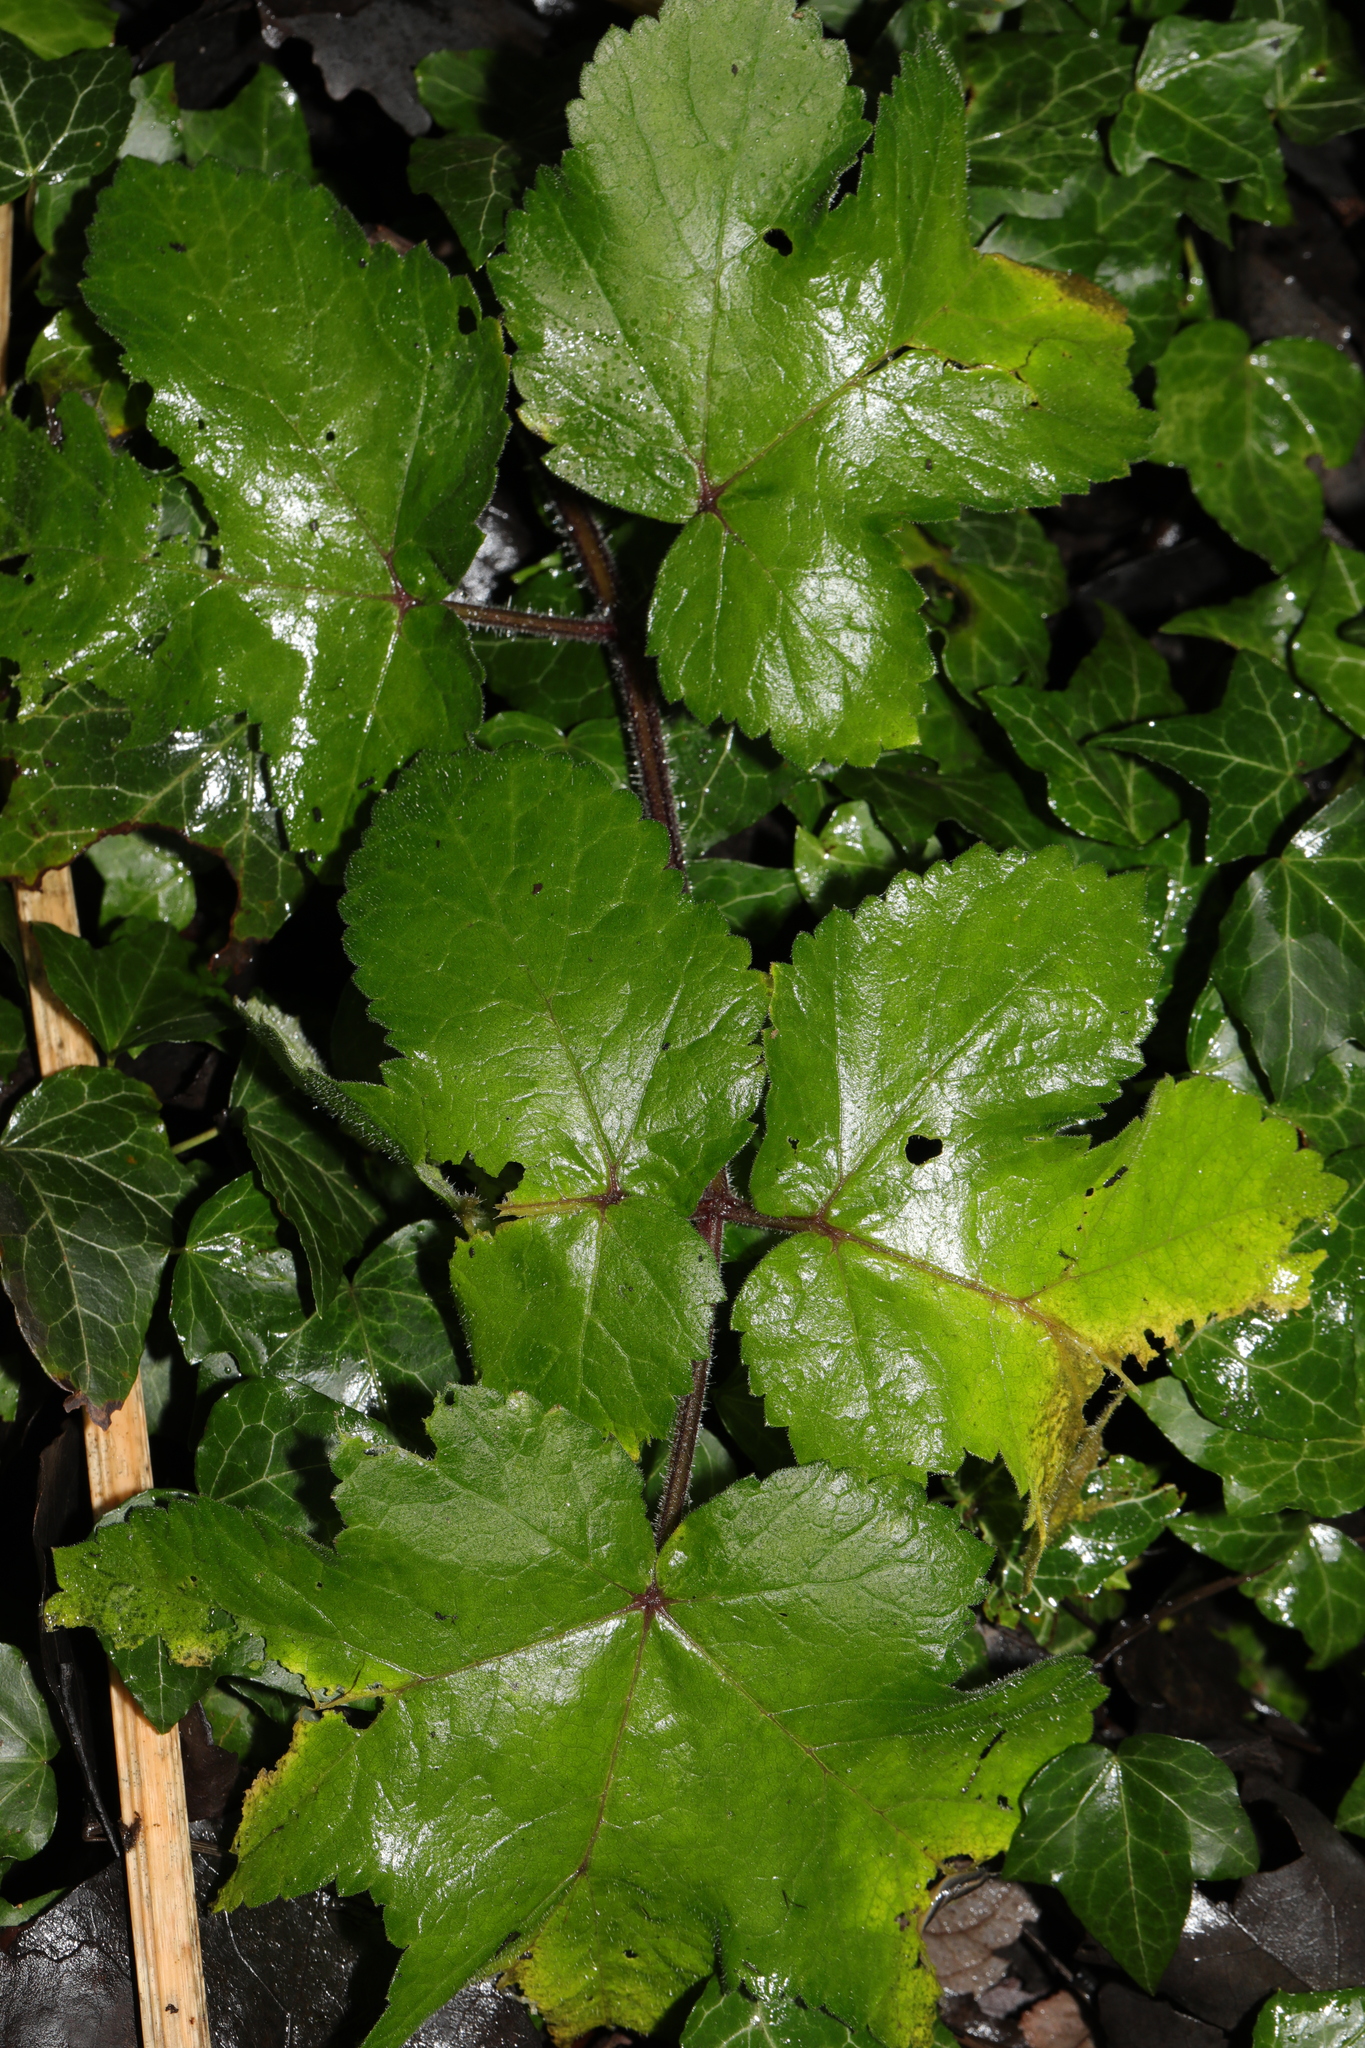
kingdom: Plantae
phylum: Tracheophyta
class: Magnoliopsida
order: Apiales
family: Apiaceae
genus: Heracleum
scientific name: Heracleum sphondylium
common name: Hogweed
